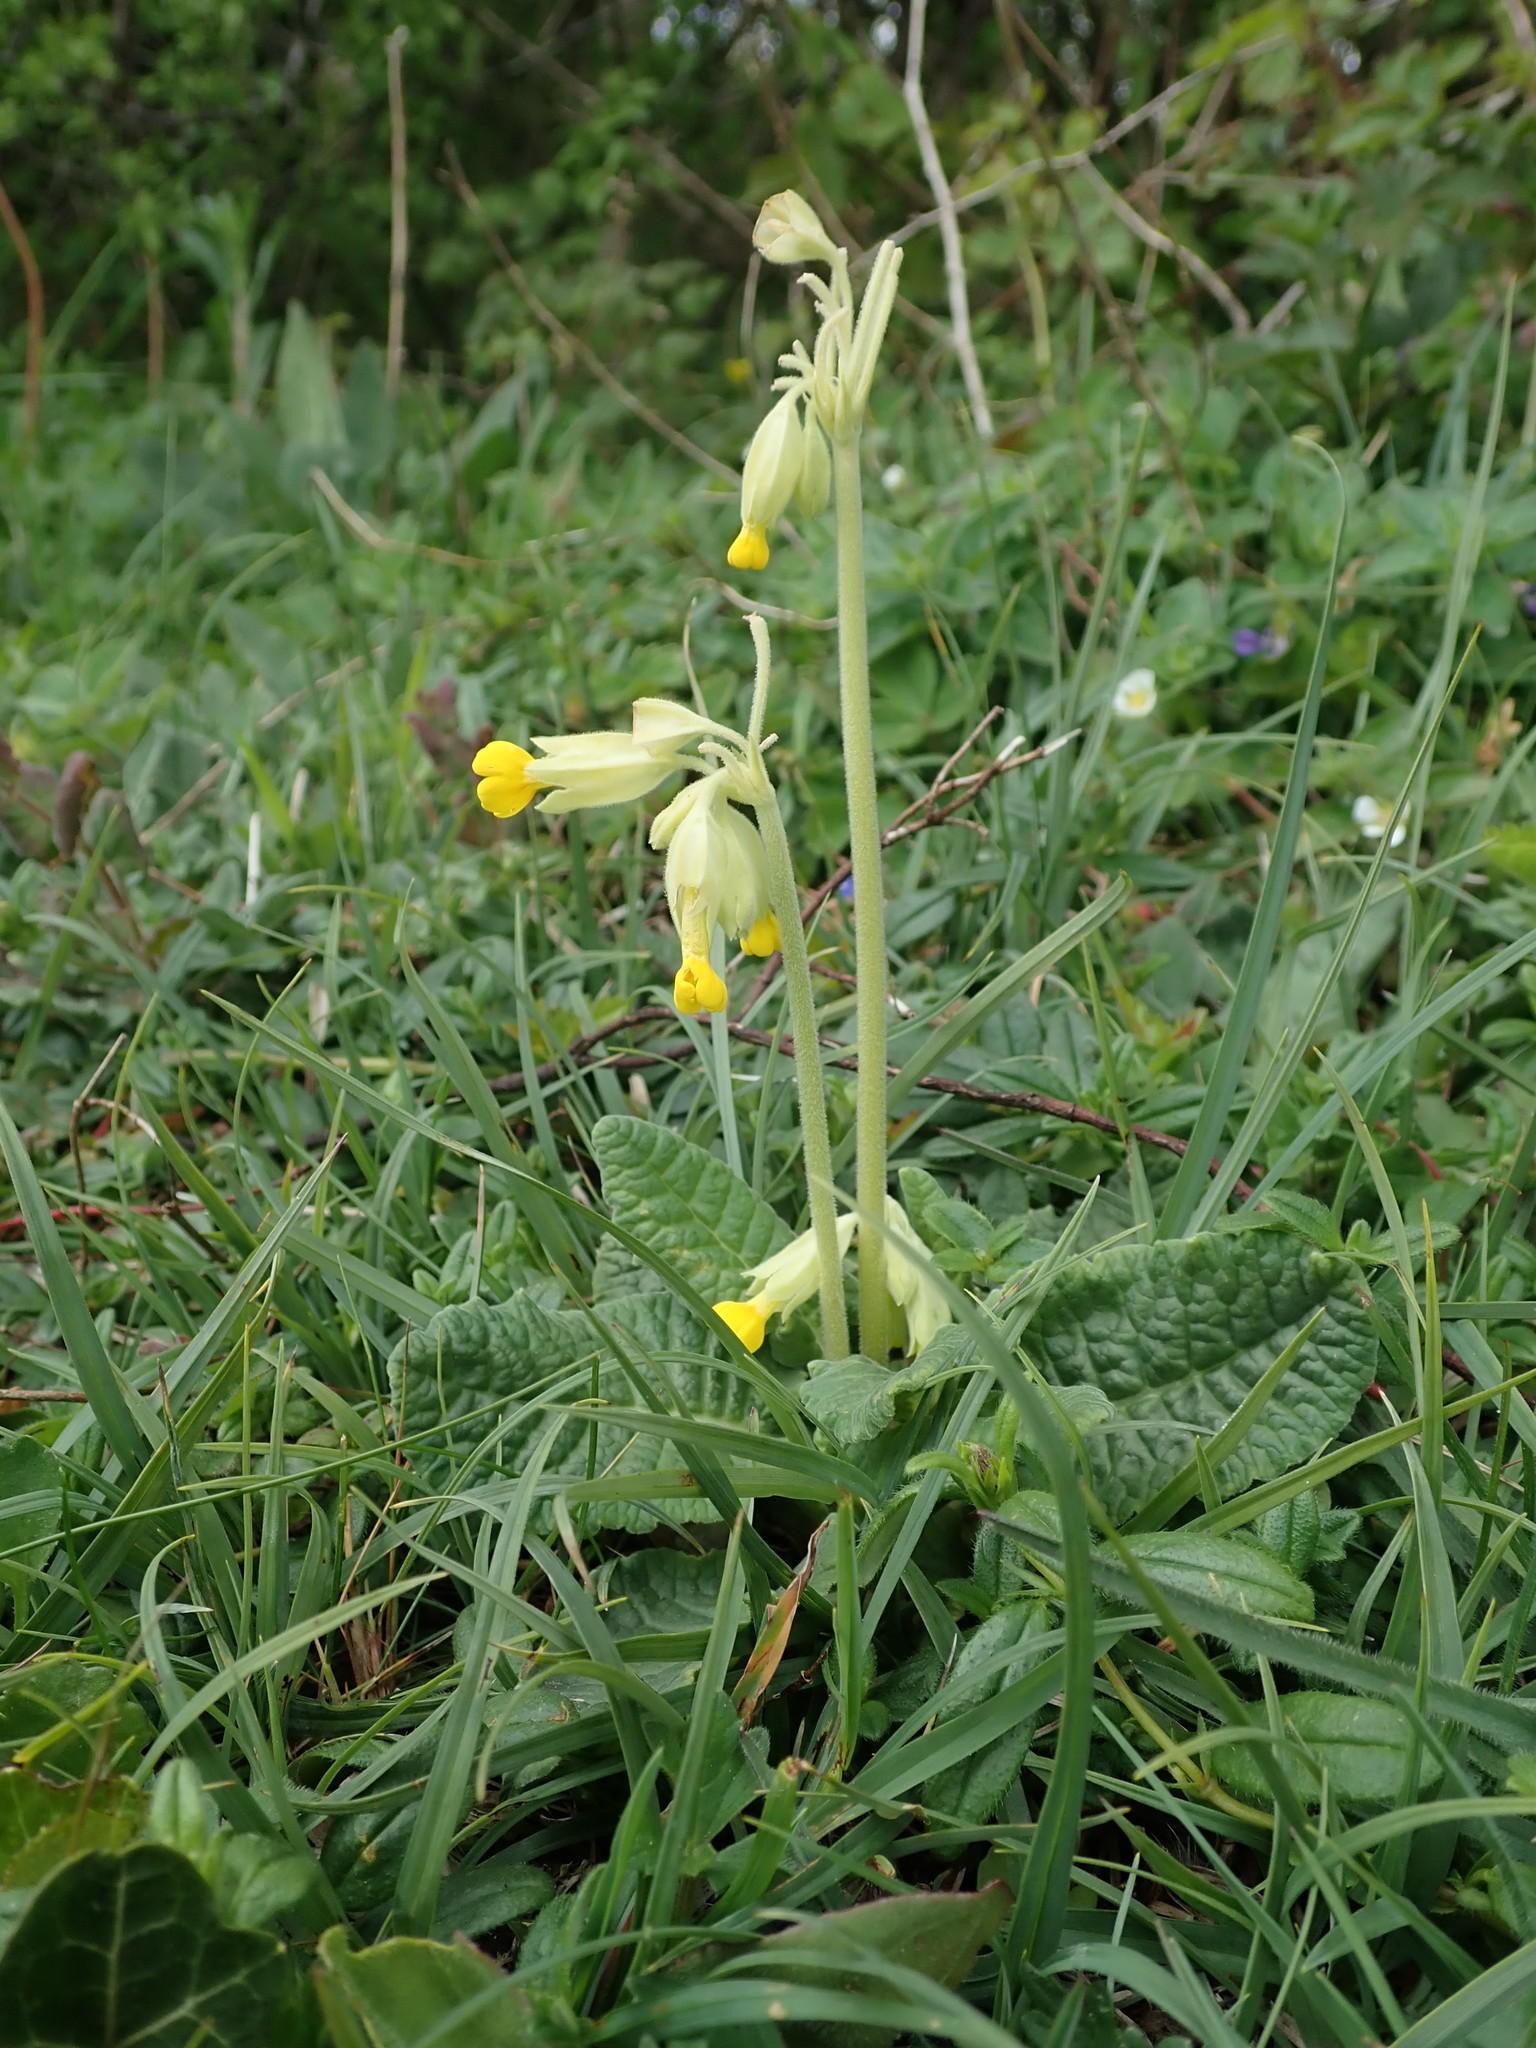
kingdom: Plantae
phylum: Tracheophyta
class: Magnoliopsida
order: Ericales
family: Primulaceae
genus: Primula
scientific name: Primula veris
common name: Cowslip
